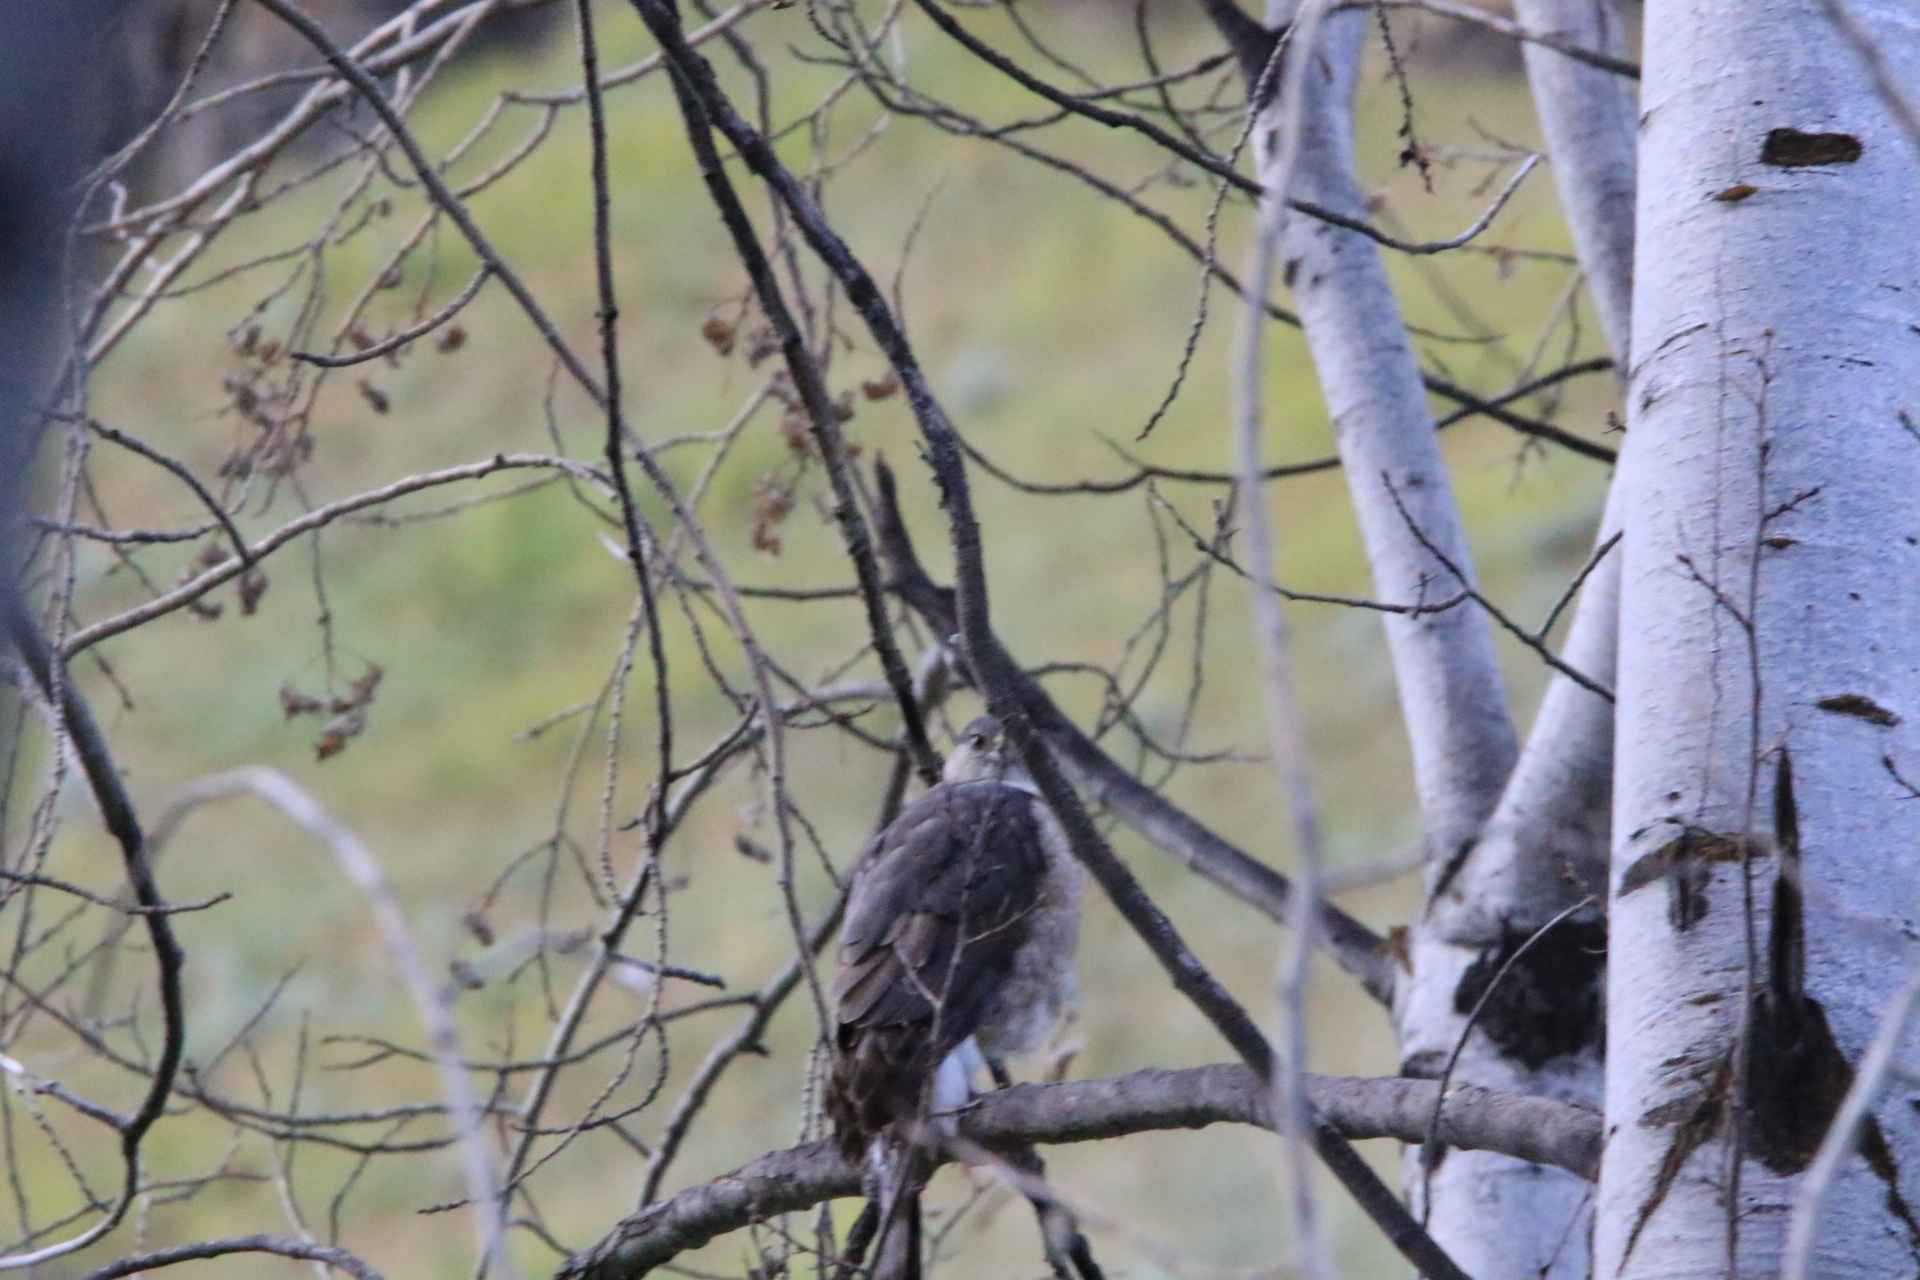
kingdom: Animalia
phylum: Chordata
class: Aves
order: Accipitriformes
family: Accipitridae
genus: Accipiter
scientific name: Accipiter cooperii
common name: Cooper's hawk
